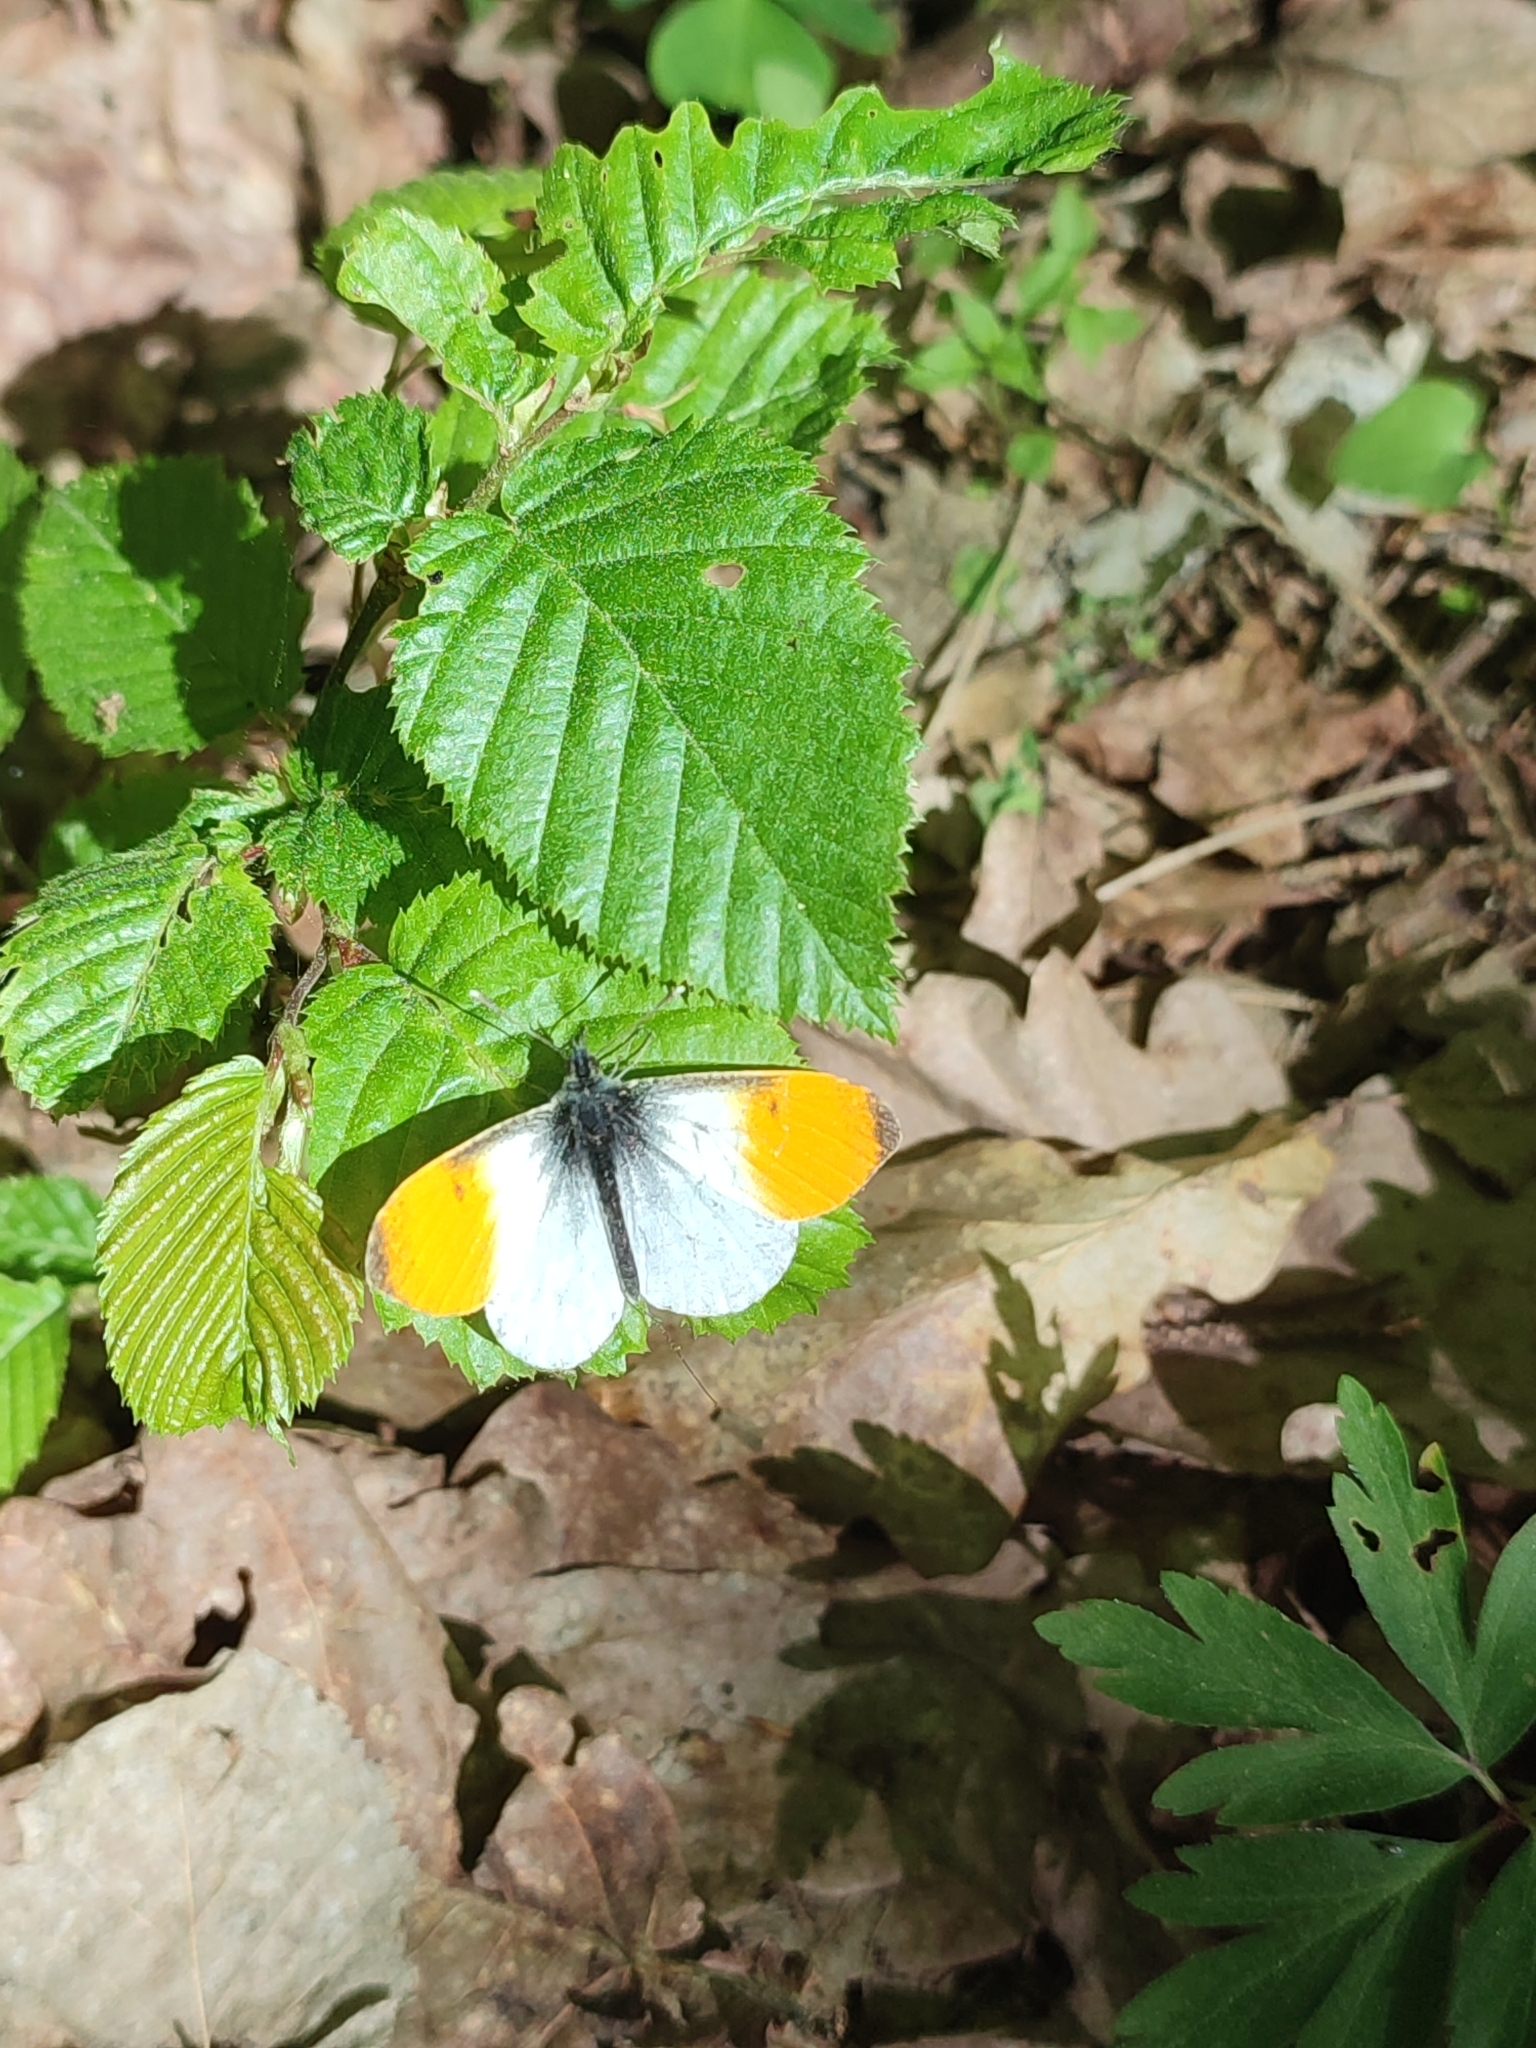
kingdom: Animalia
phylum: Arthropoda
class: Insecta
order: Lepidoptera
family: Pieridae
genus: Anthocharis
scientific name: Anthocharis cardamines
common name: Orange-tip
